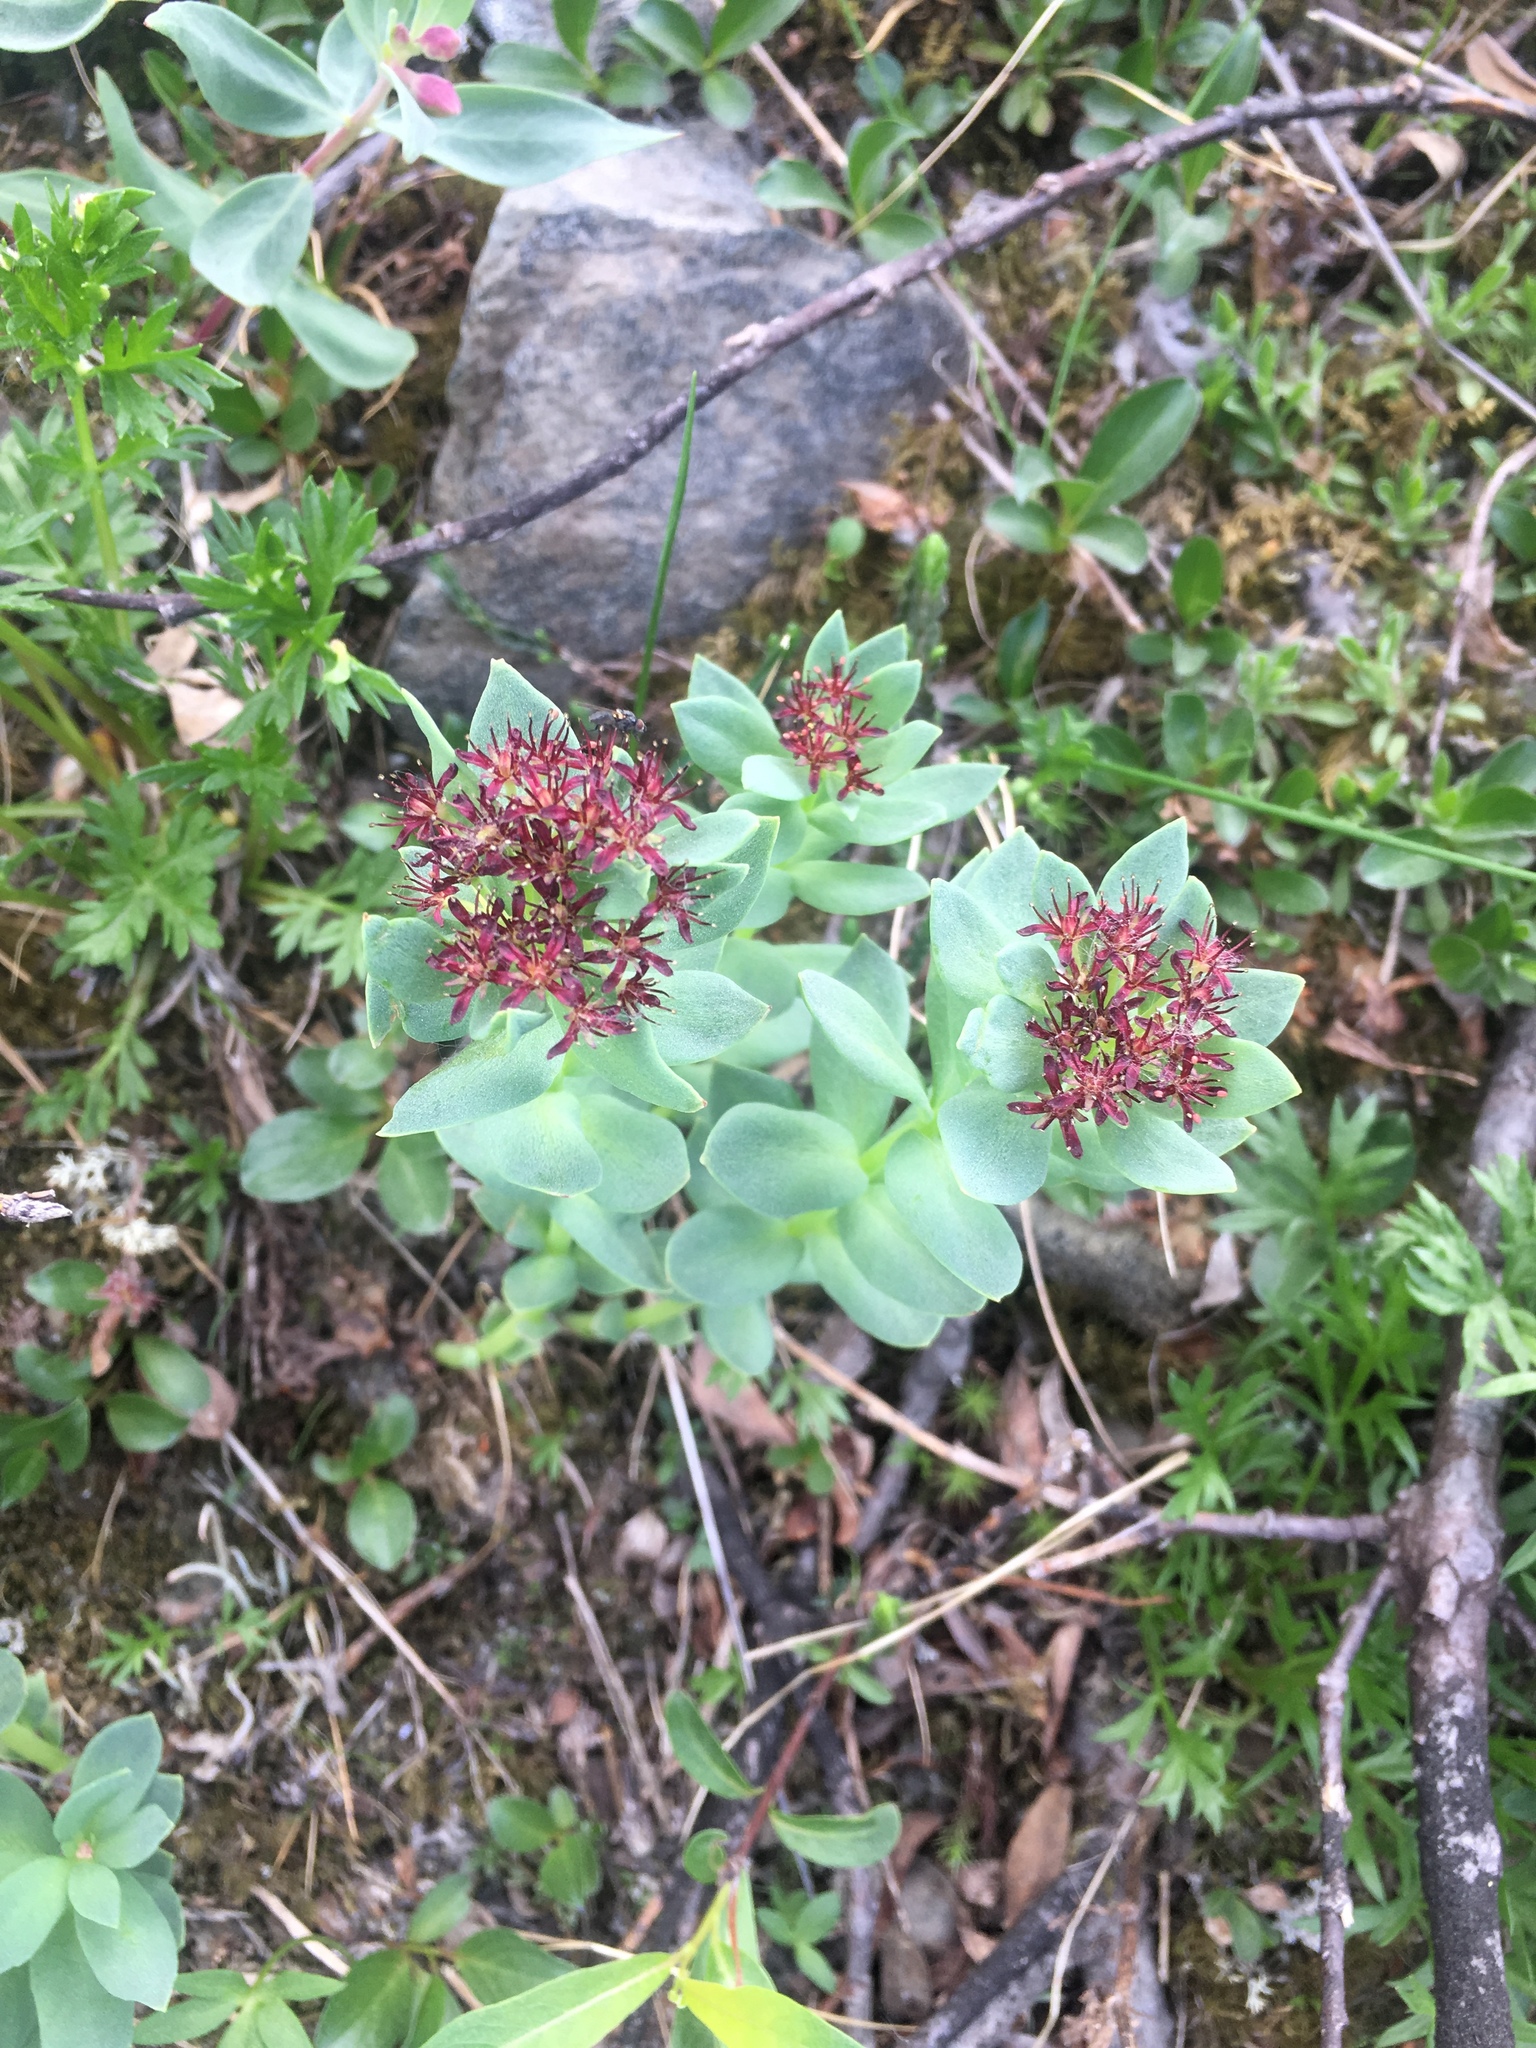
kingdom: Plantae
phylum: Tracheophyta
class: Magnoliopsida
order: Saxifragales
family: Crassulaceae
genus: Rhodiola
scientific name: Rhodiola integrifolia
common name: Western roseroot
